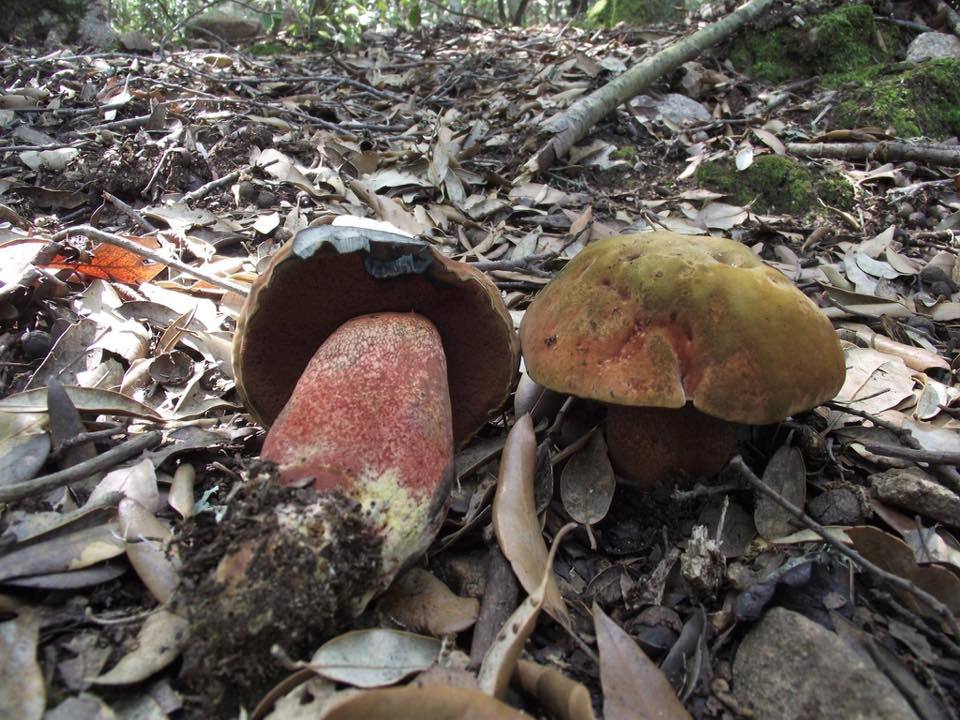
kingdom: Fungi
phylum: Basidiomycota
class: Agaricomycetes
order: Boletales
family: Boletaceae
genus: Suillellus
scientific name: Suillellus mendax
